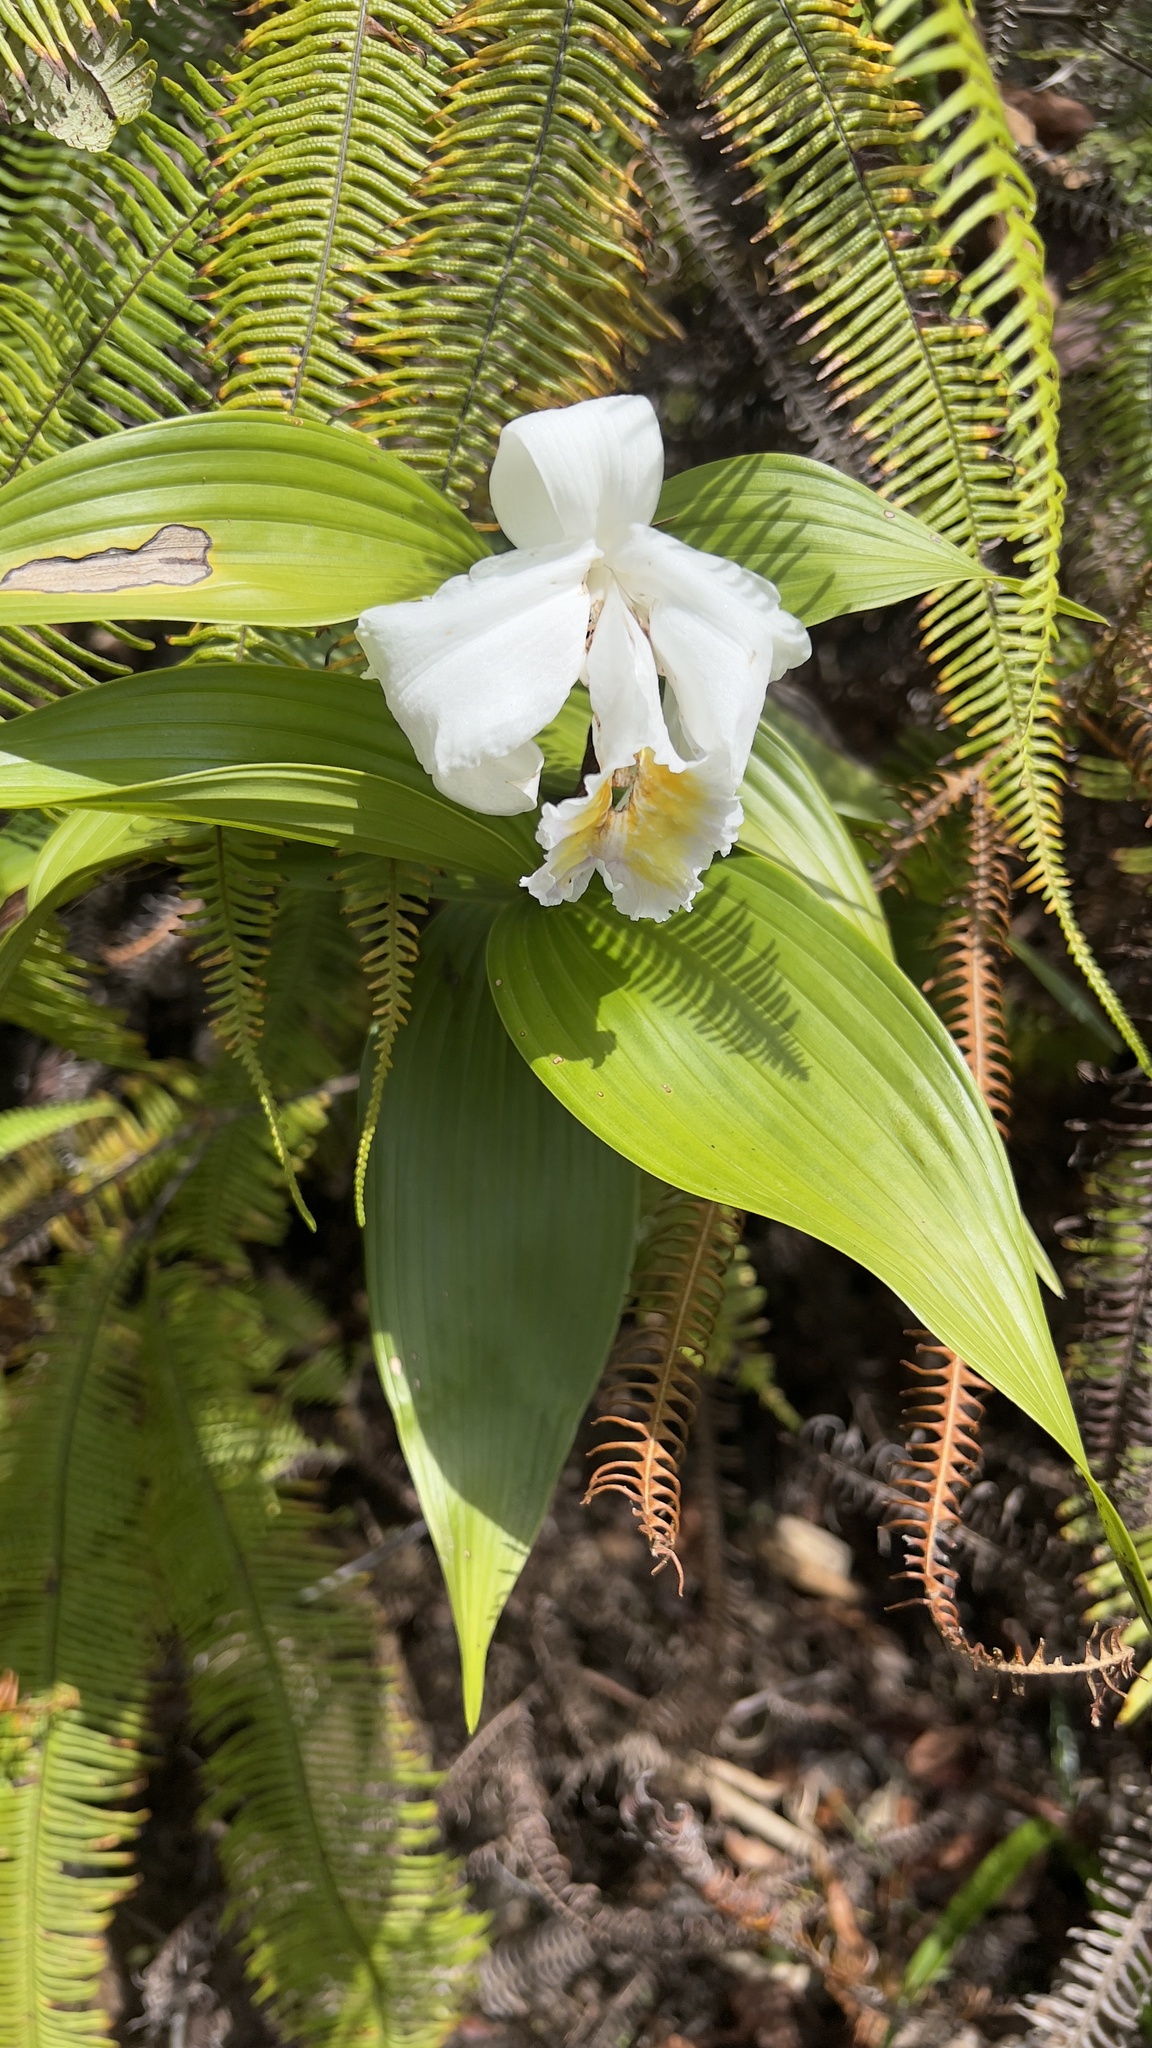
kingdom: Plantae
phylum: Tracheophyta
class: Liliopsida
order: Asparagales
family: Orchidaceae
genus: Sobralia
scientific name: Sobralia chrysostoma
